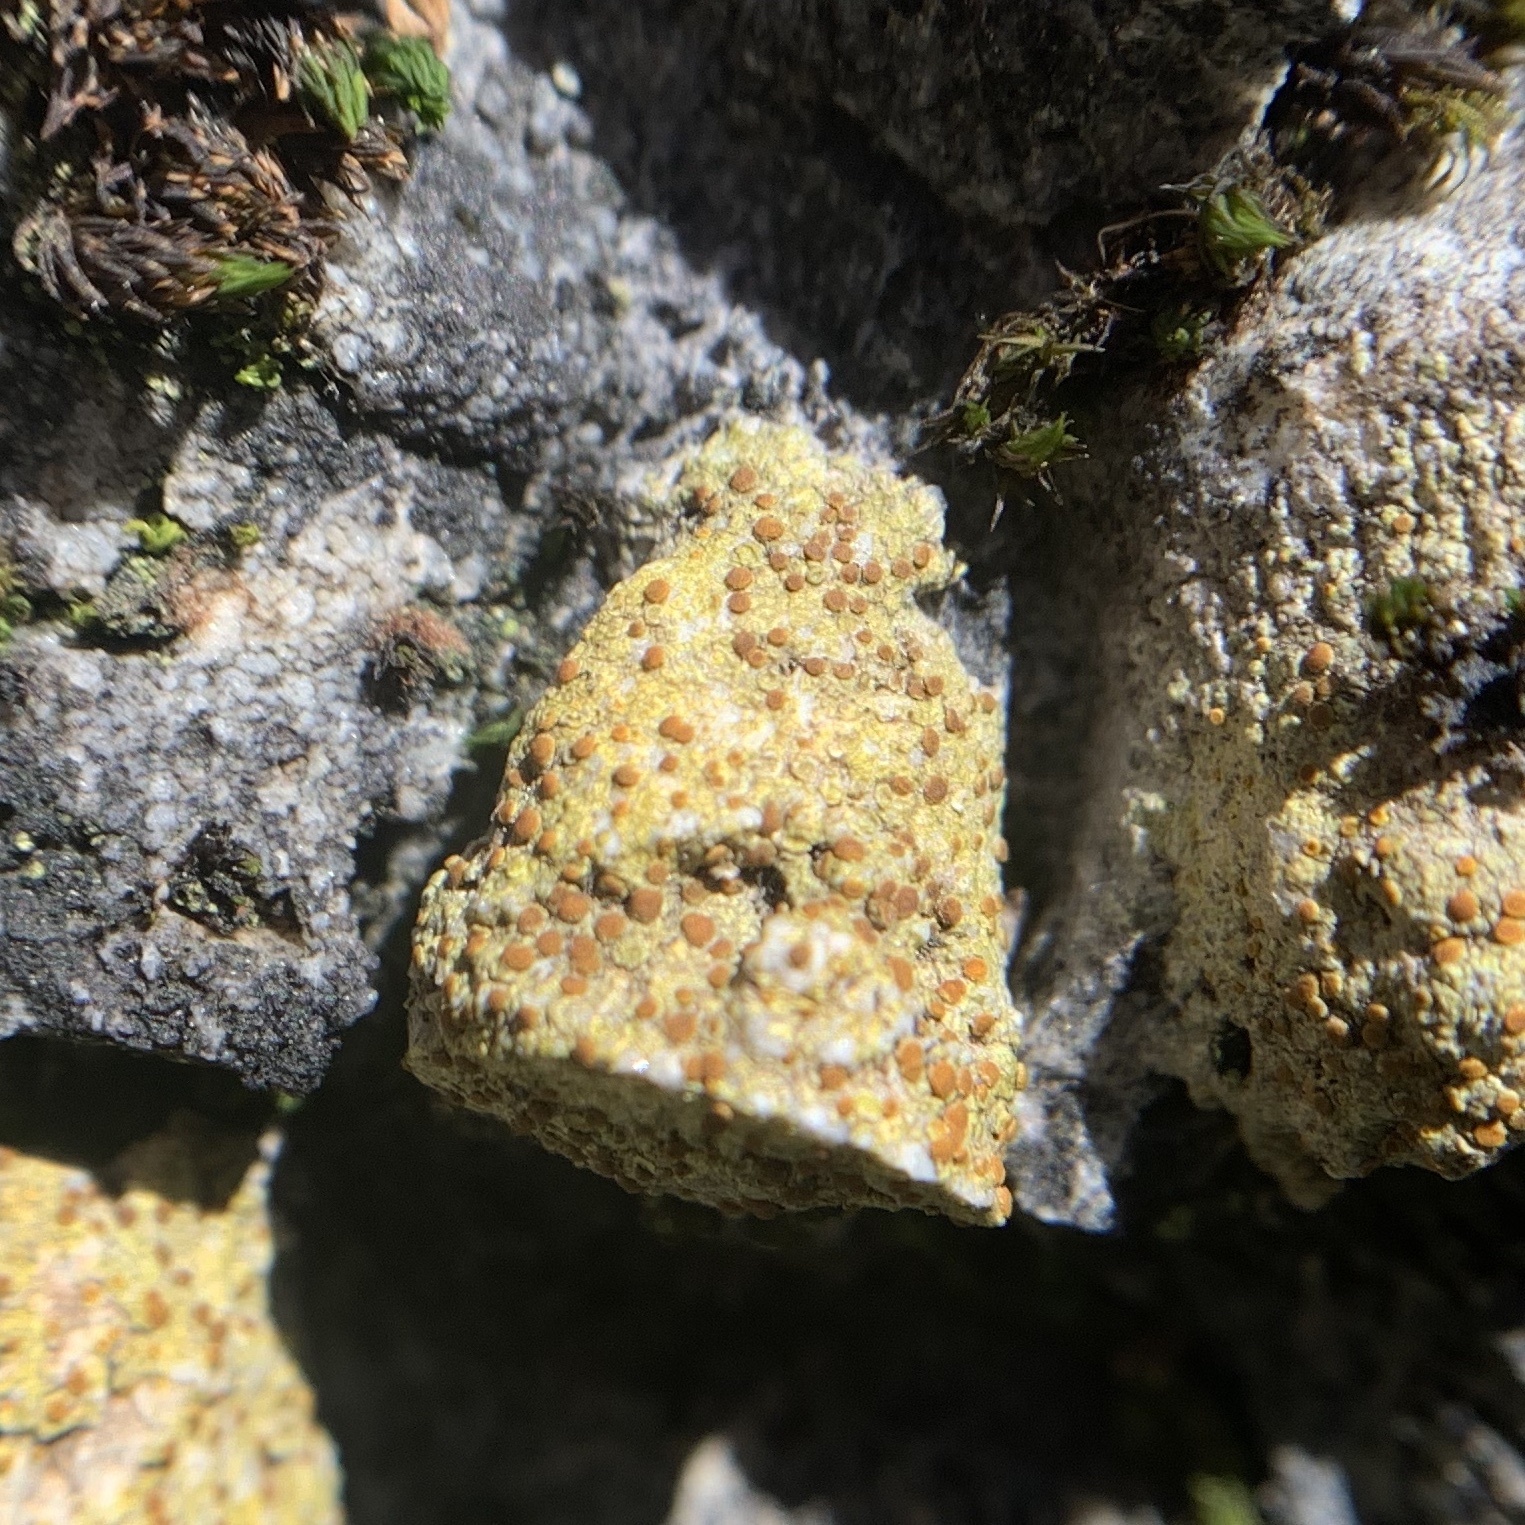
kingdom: Fungi
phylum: Ascomycota
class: Lecanoromycetes
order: Teloschistales
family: Teloschistaceae
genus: Gyalolechia
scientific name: Gyalolechia flavovirescens
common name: Sulphur firedot
